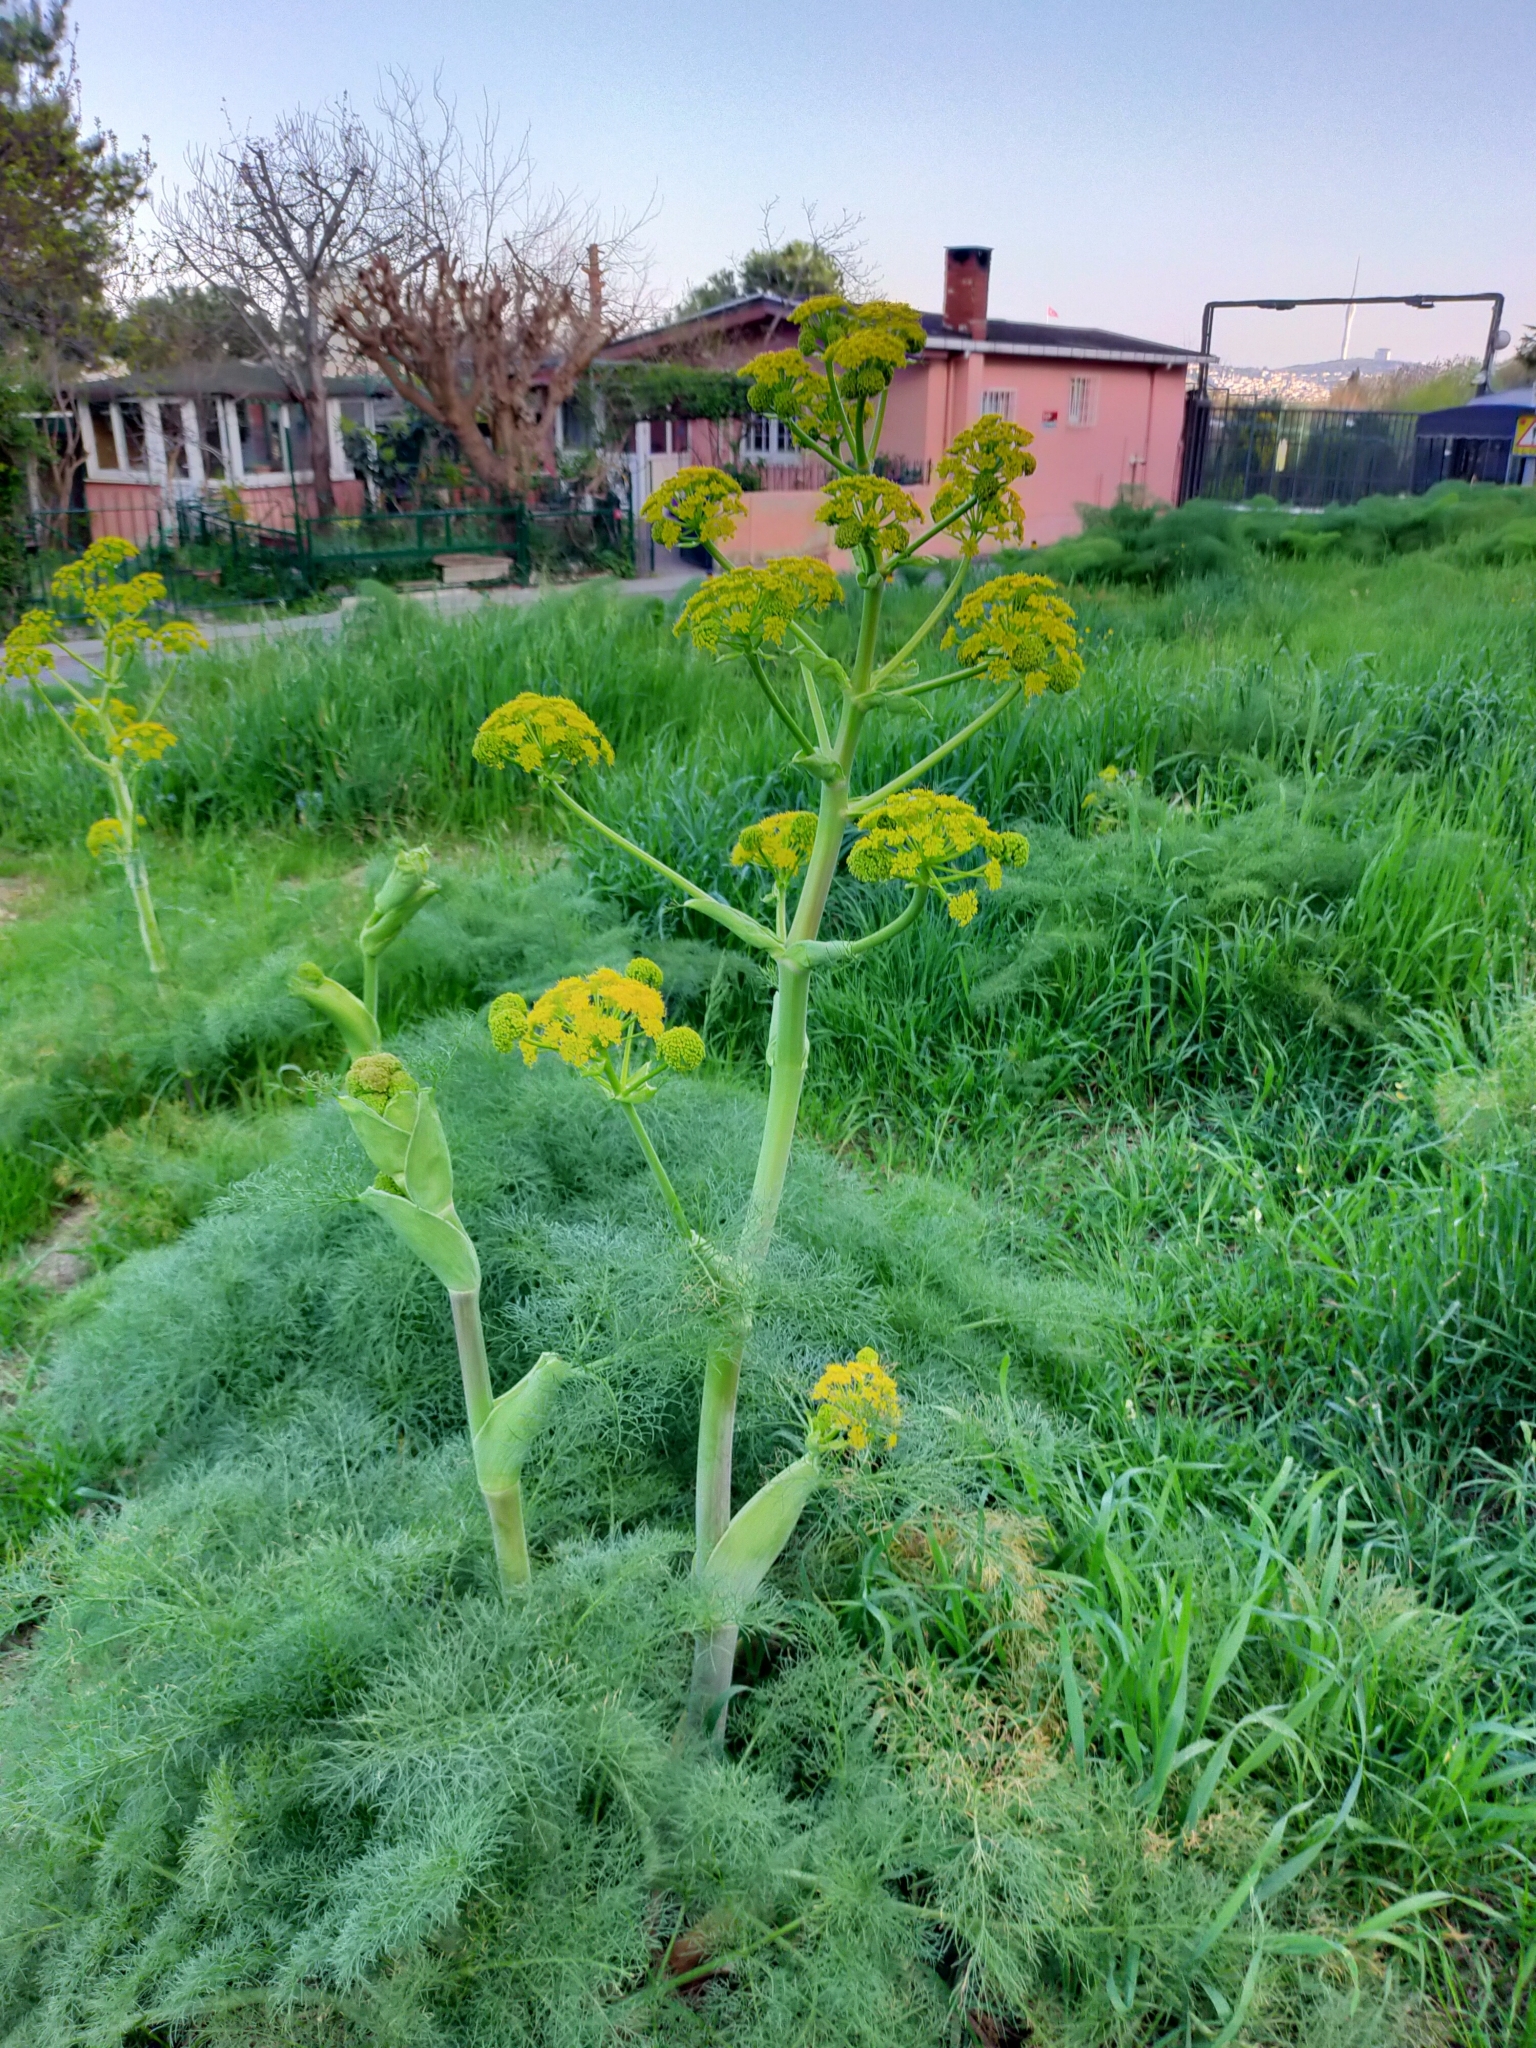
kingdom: Plantae
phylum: Tracheophyta
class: Magnoliopsida
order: Apiales
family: Apiaceae
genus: Ferula
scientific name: Ferula communis
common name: Giant fennel
